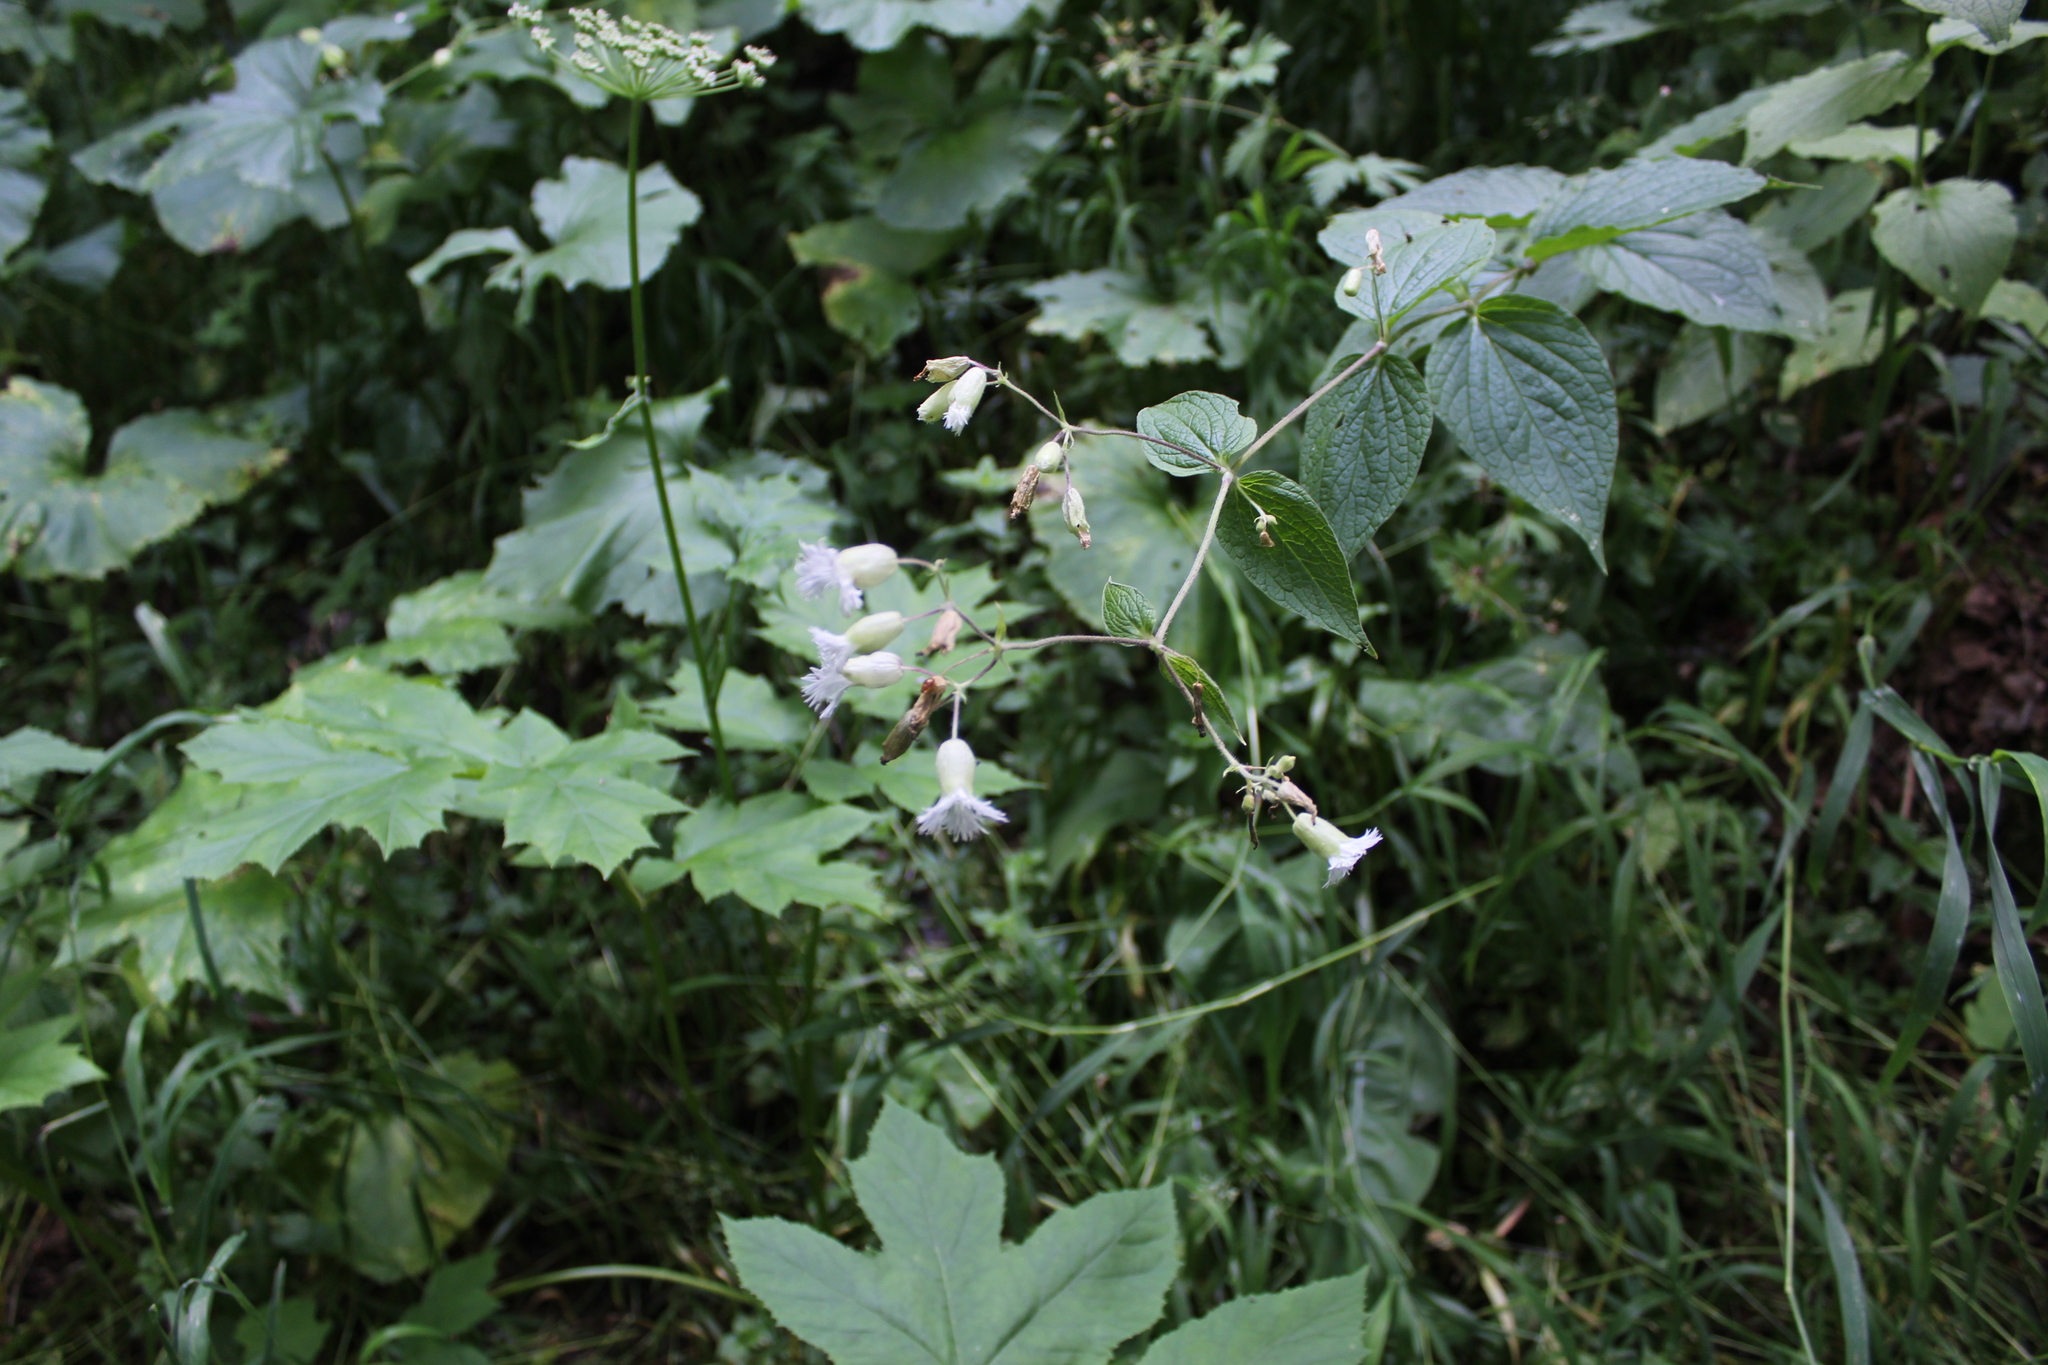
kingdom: Plantae
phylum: Tracheophyta
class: Magnoliopsida
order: Caryophyllales
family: Caryophyllaceae
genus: Silene
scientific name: Silene
